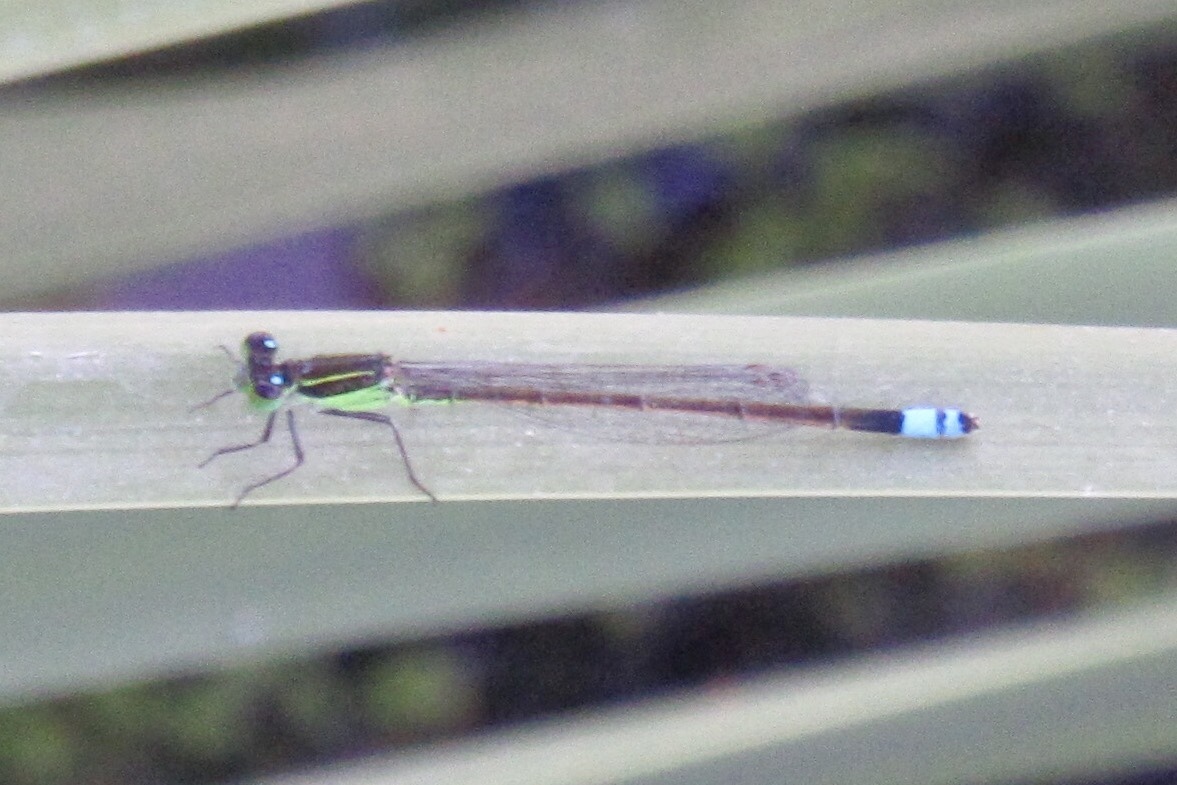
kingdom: Animalia
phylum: Arthropoda
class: Insecta
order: Odonata
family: Coenagrionidae
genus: Ischnura
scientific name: Ischnura ramburii
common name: Rambur's forktail
